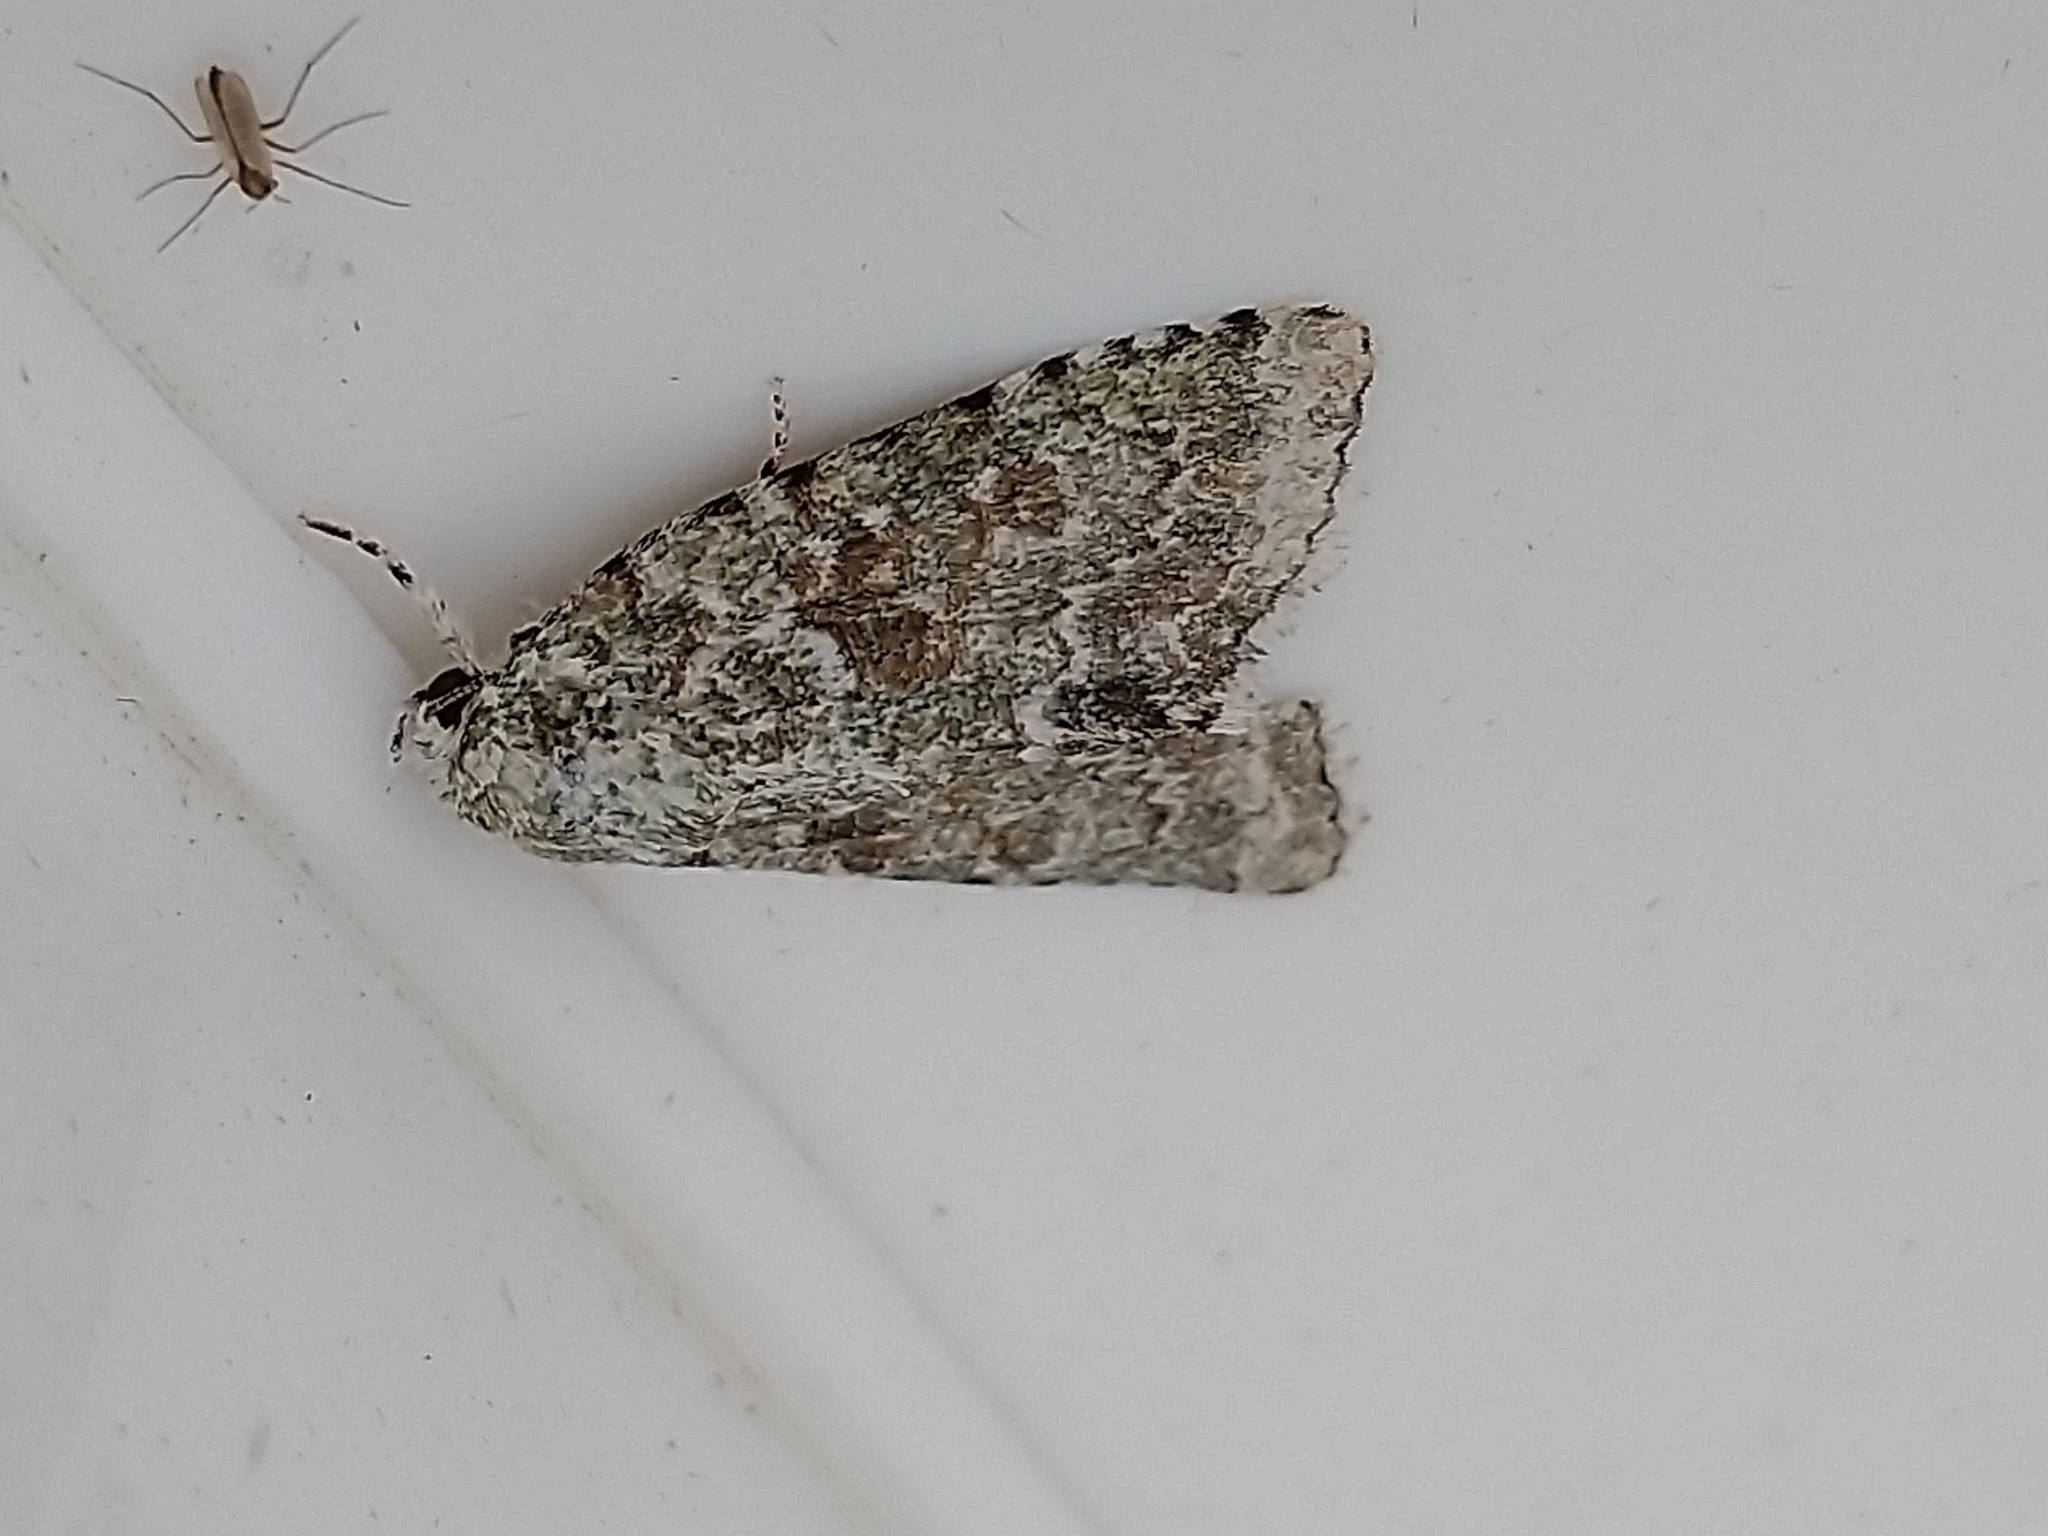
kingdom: Animalia
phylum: Arthropoda
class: Insecta
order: Lepidoptera
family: Noctuidae
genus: Nyctobrya
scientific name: Nyctobrya muralis
